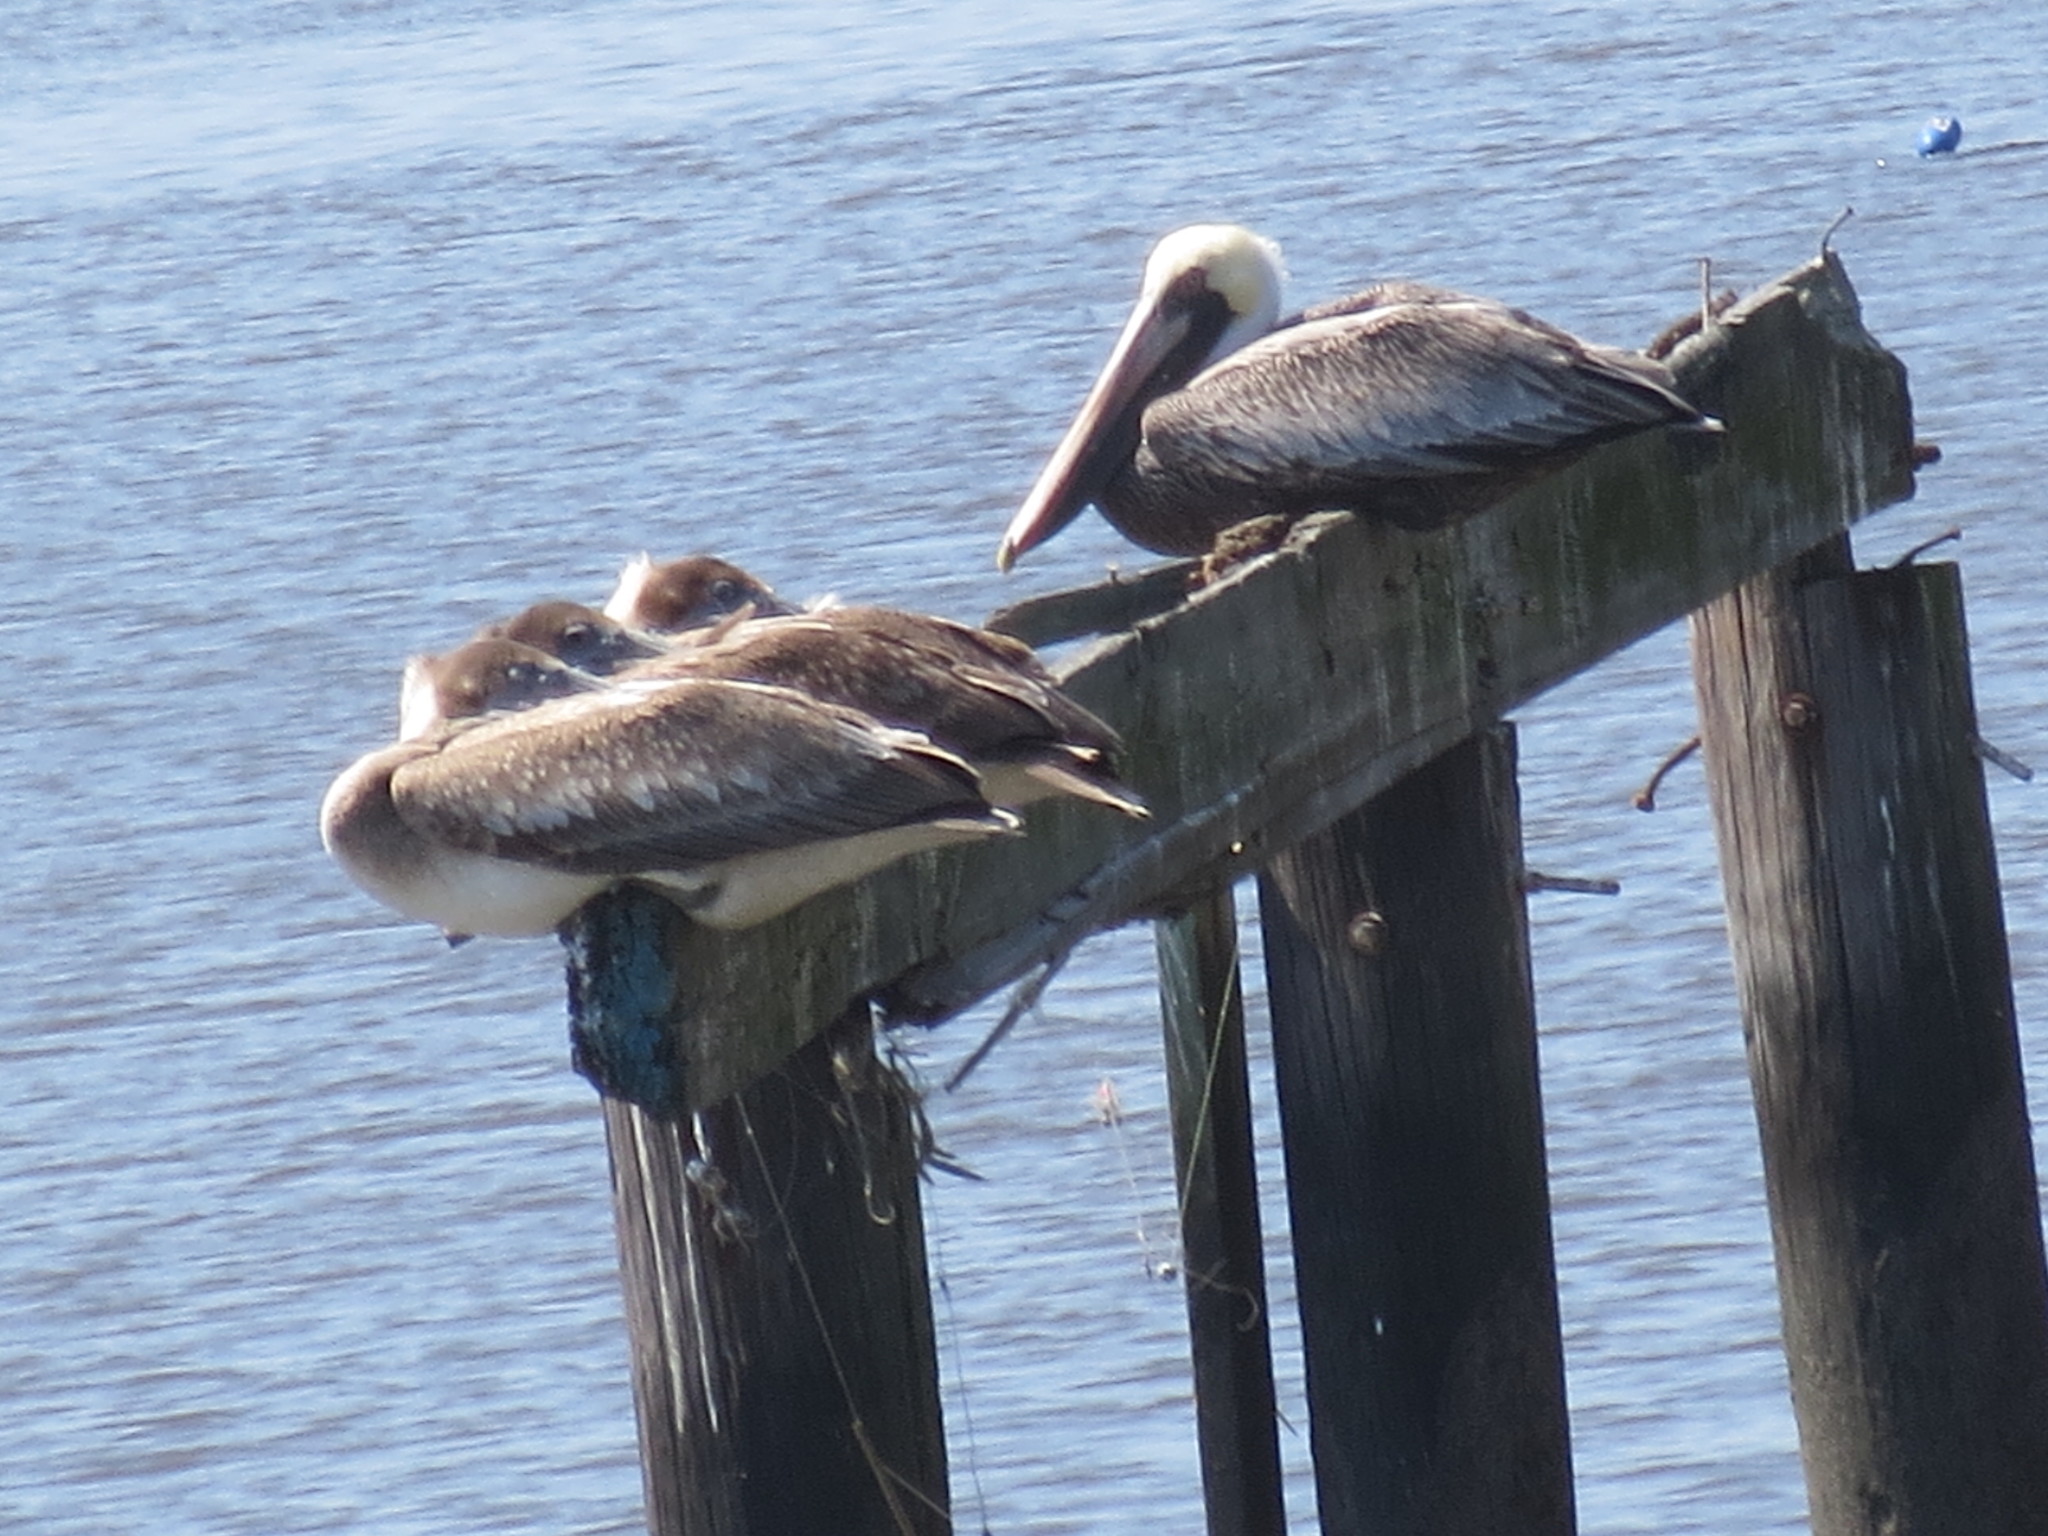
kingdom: Animalia
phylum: Chordata
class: Aves
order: Pelecaniformes
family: Pelecanidae
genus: Pelecanus
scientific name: Pelecanus occidentalis
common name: Brown pelican
